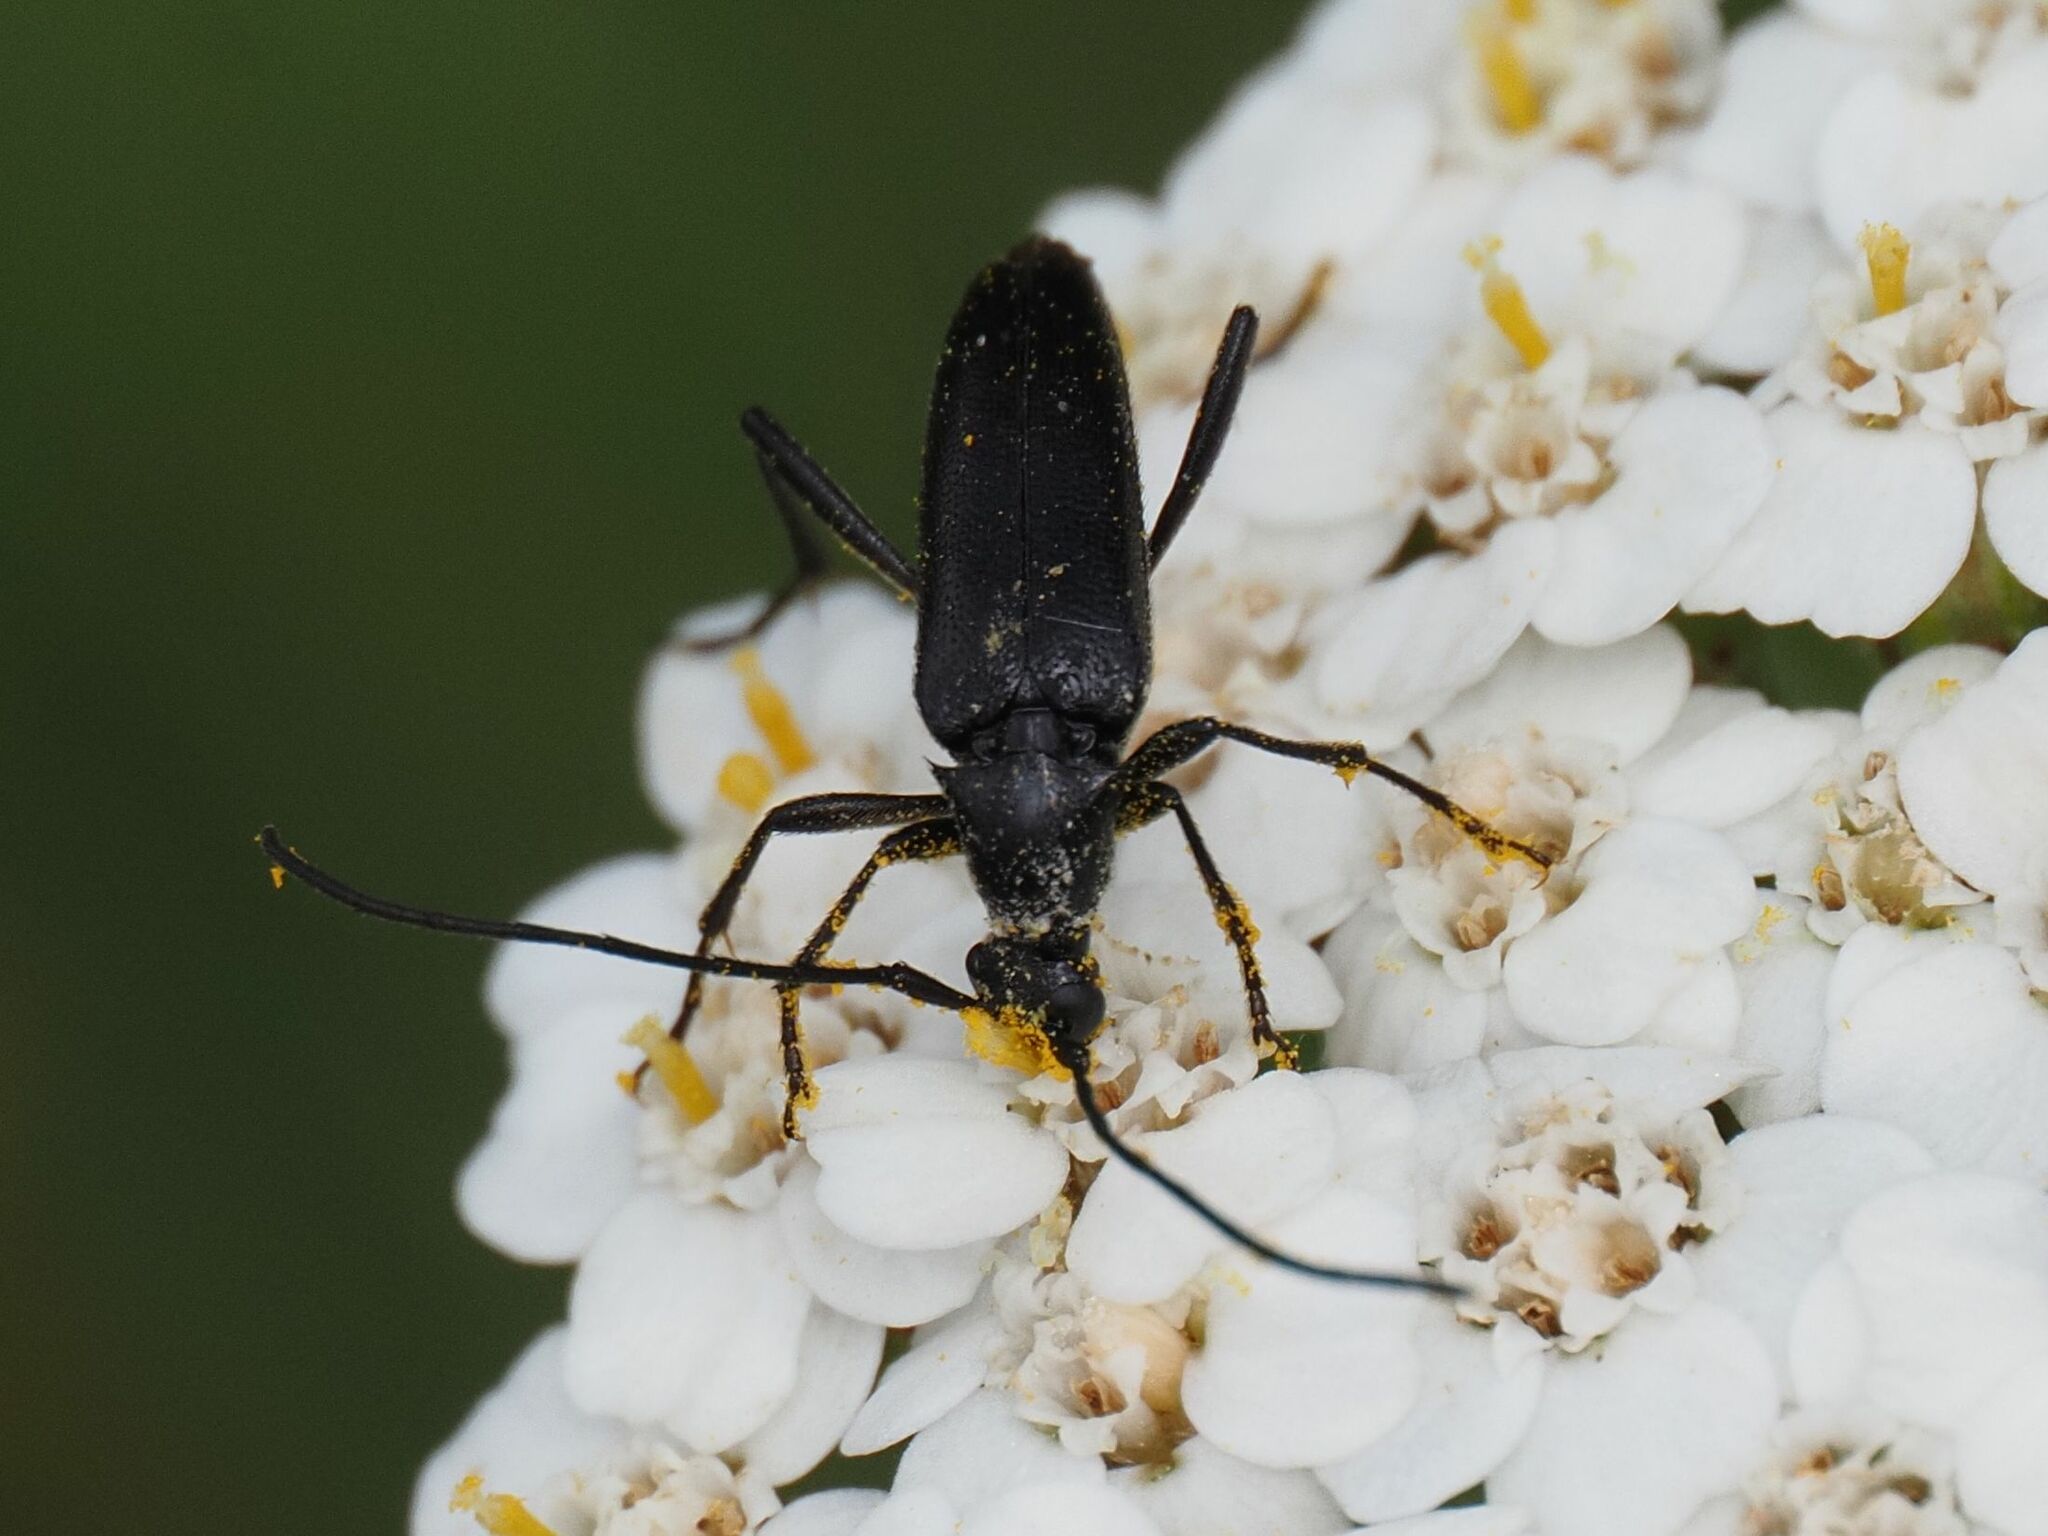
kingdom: Animalia
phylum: Arthropoda
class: Insecta
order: Coleoptera
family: Cerambycidae
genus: Stenurella
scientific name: Stenurella nigra
